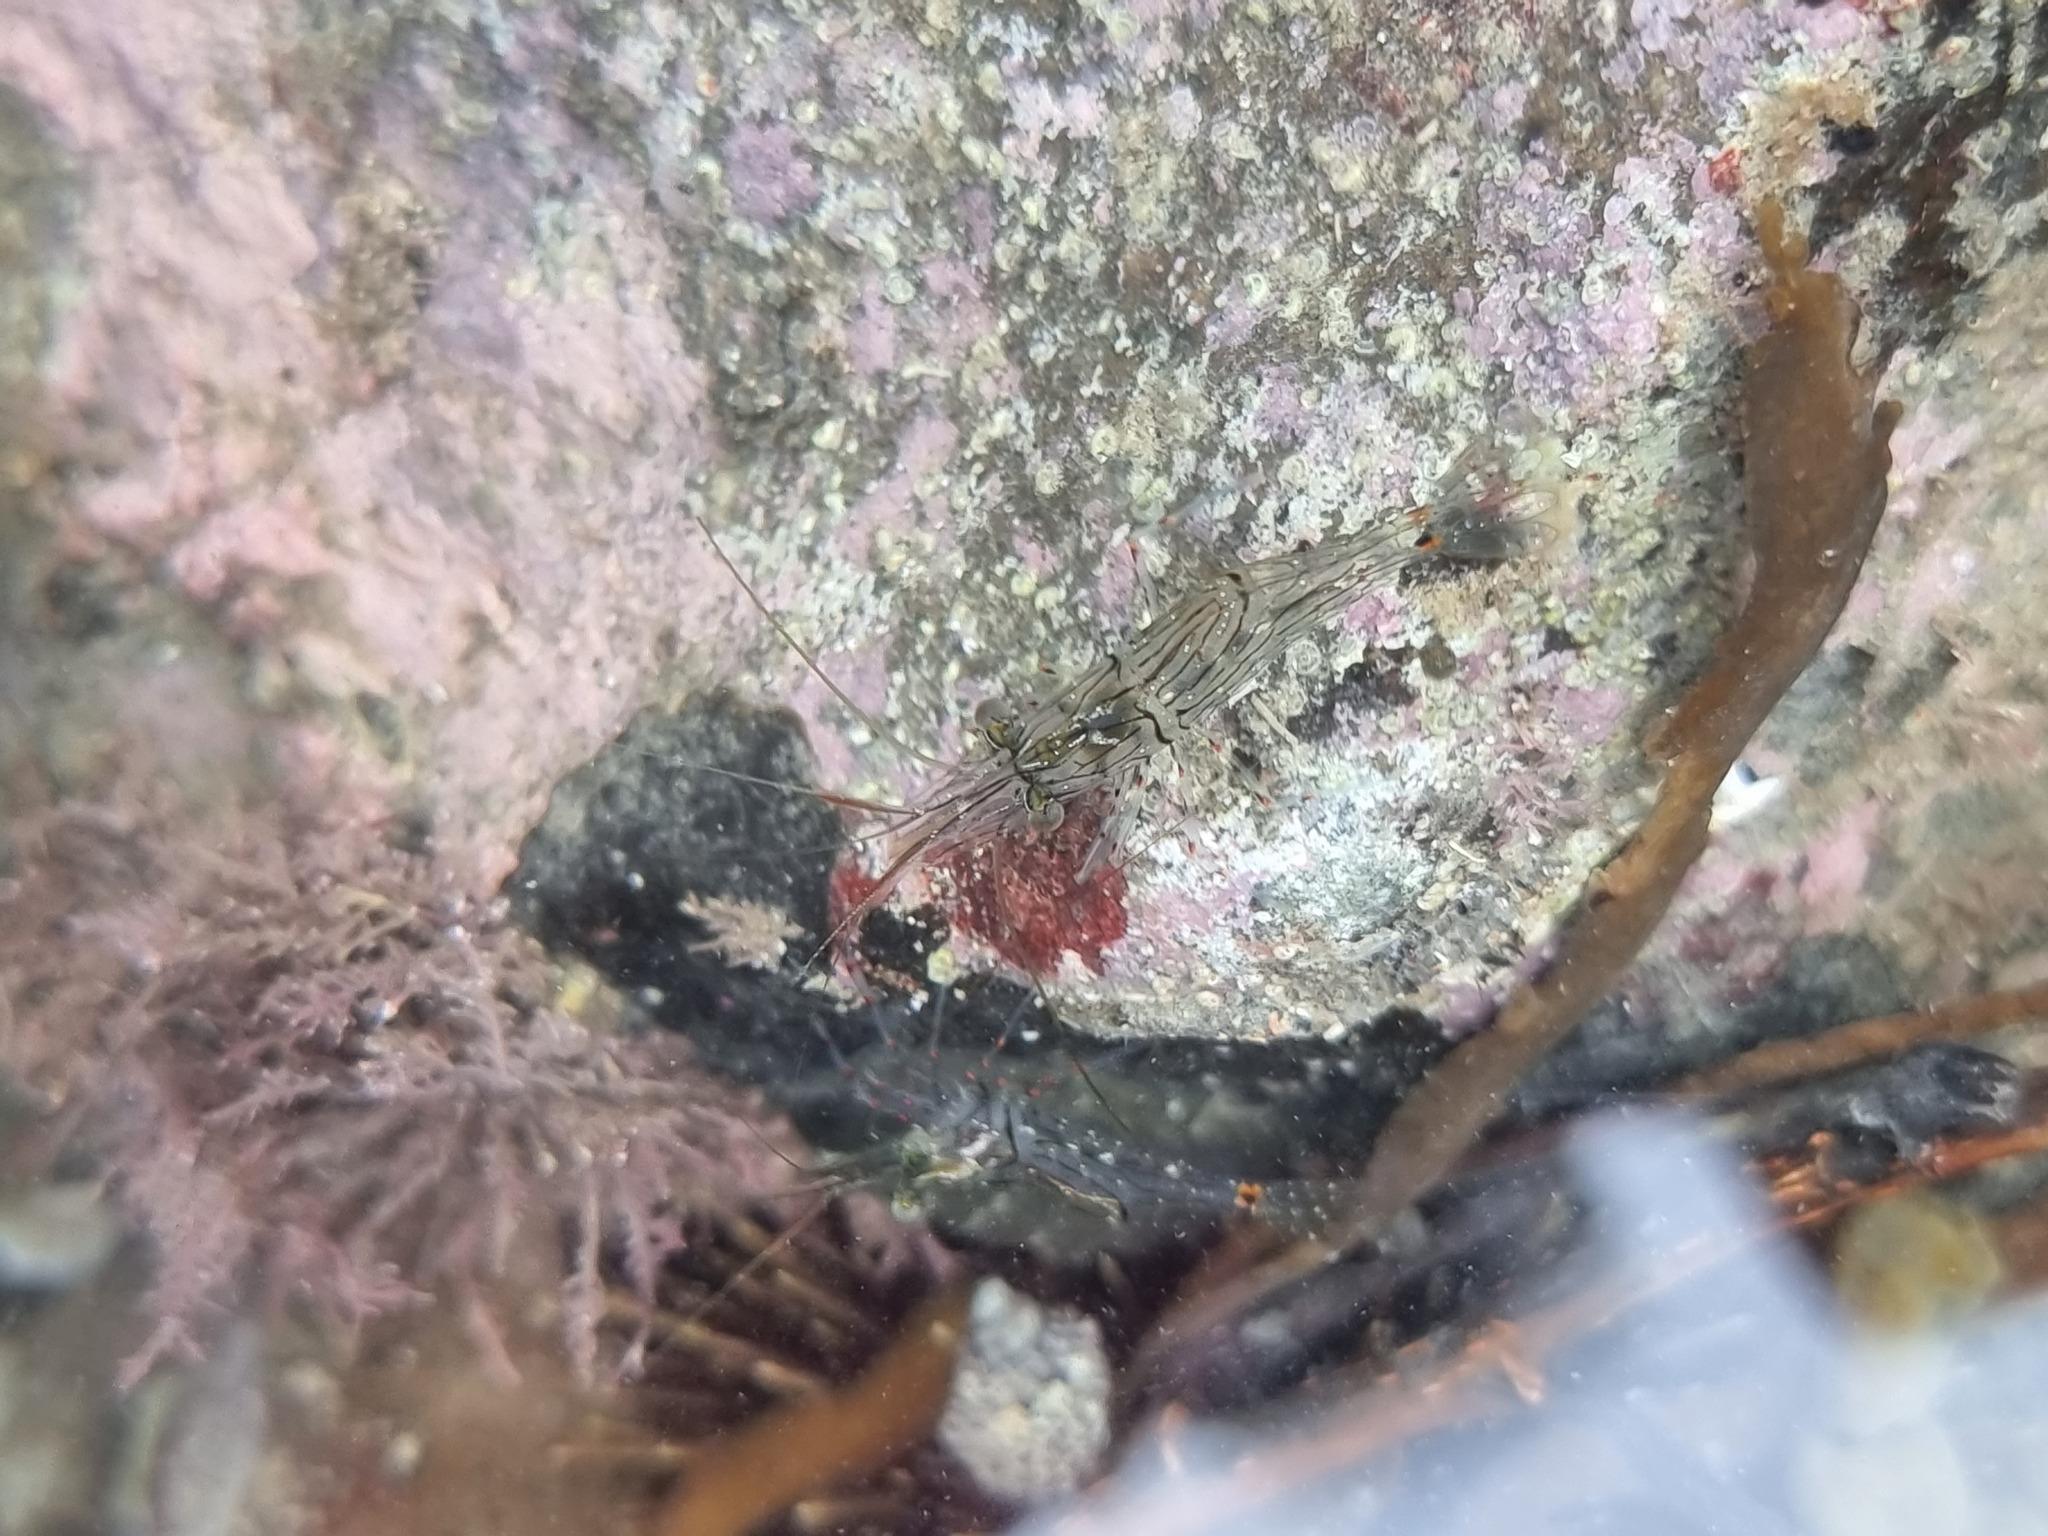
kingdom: Animalia
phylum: Arthropoda
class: Malacostraca
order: Decapoda
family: Palaemonidae
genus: Palaemon
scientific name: Palaemon affinis
